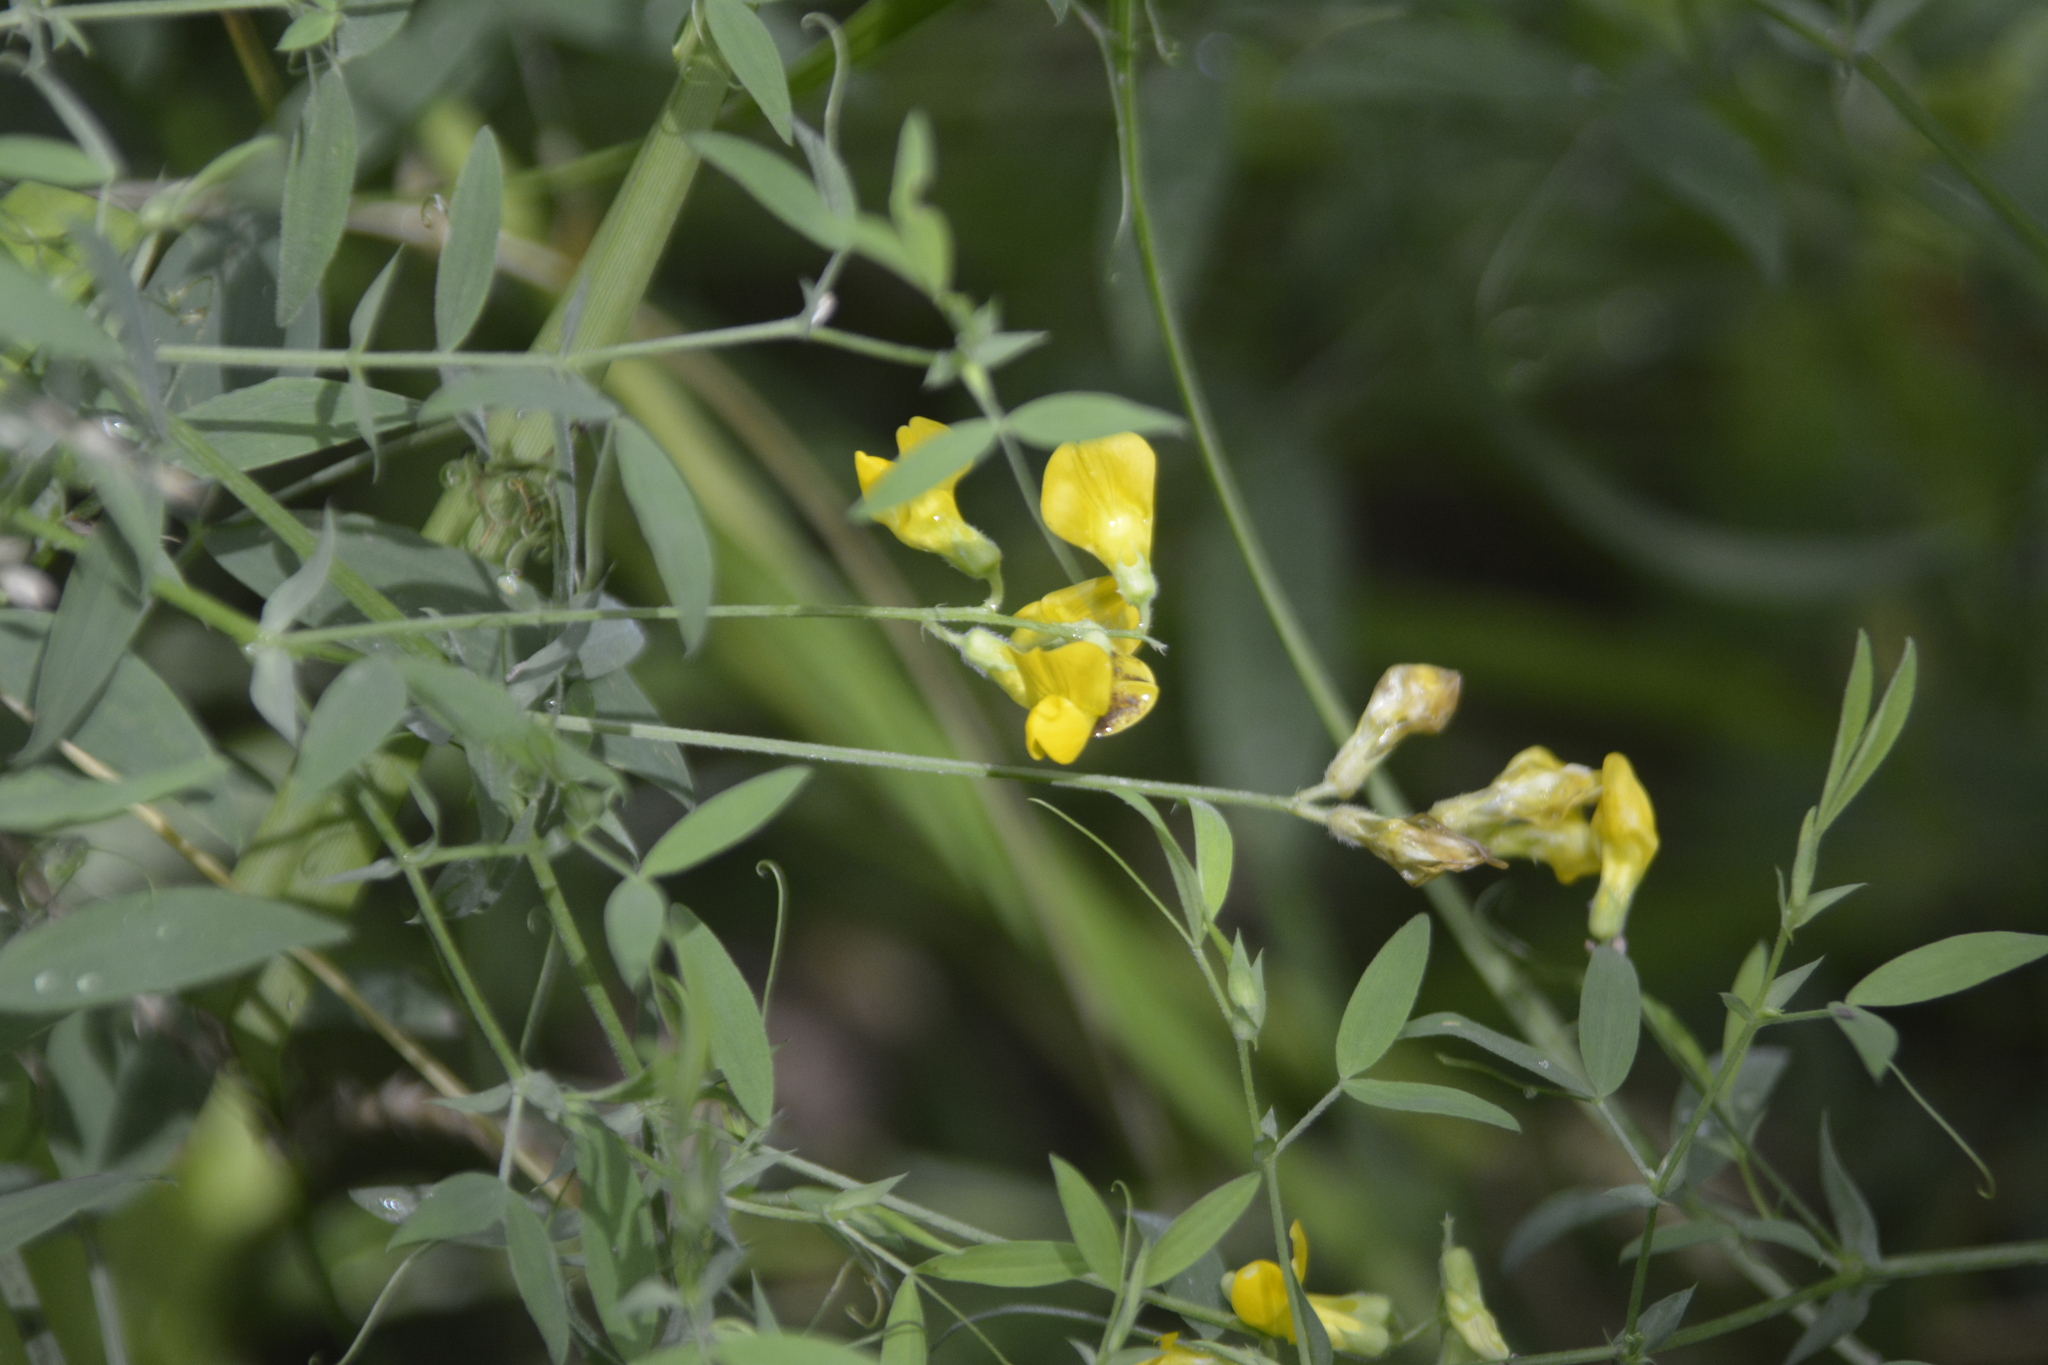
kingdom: Plantae
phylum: Tracheophyta
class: Magnoliopsida
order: Fabales
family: Fabaceae
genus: Lathyrus
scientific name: Lathyrus pratensis
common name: Meadow vetchling
